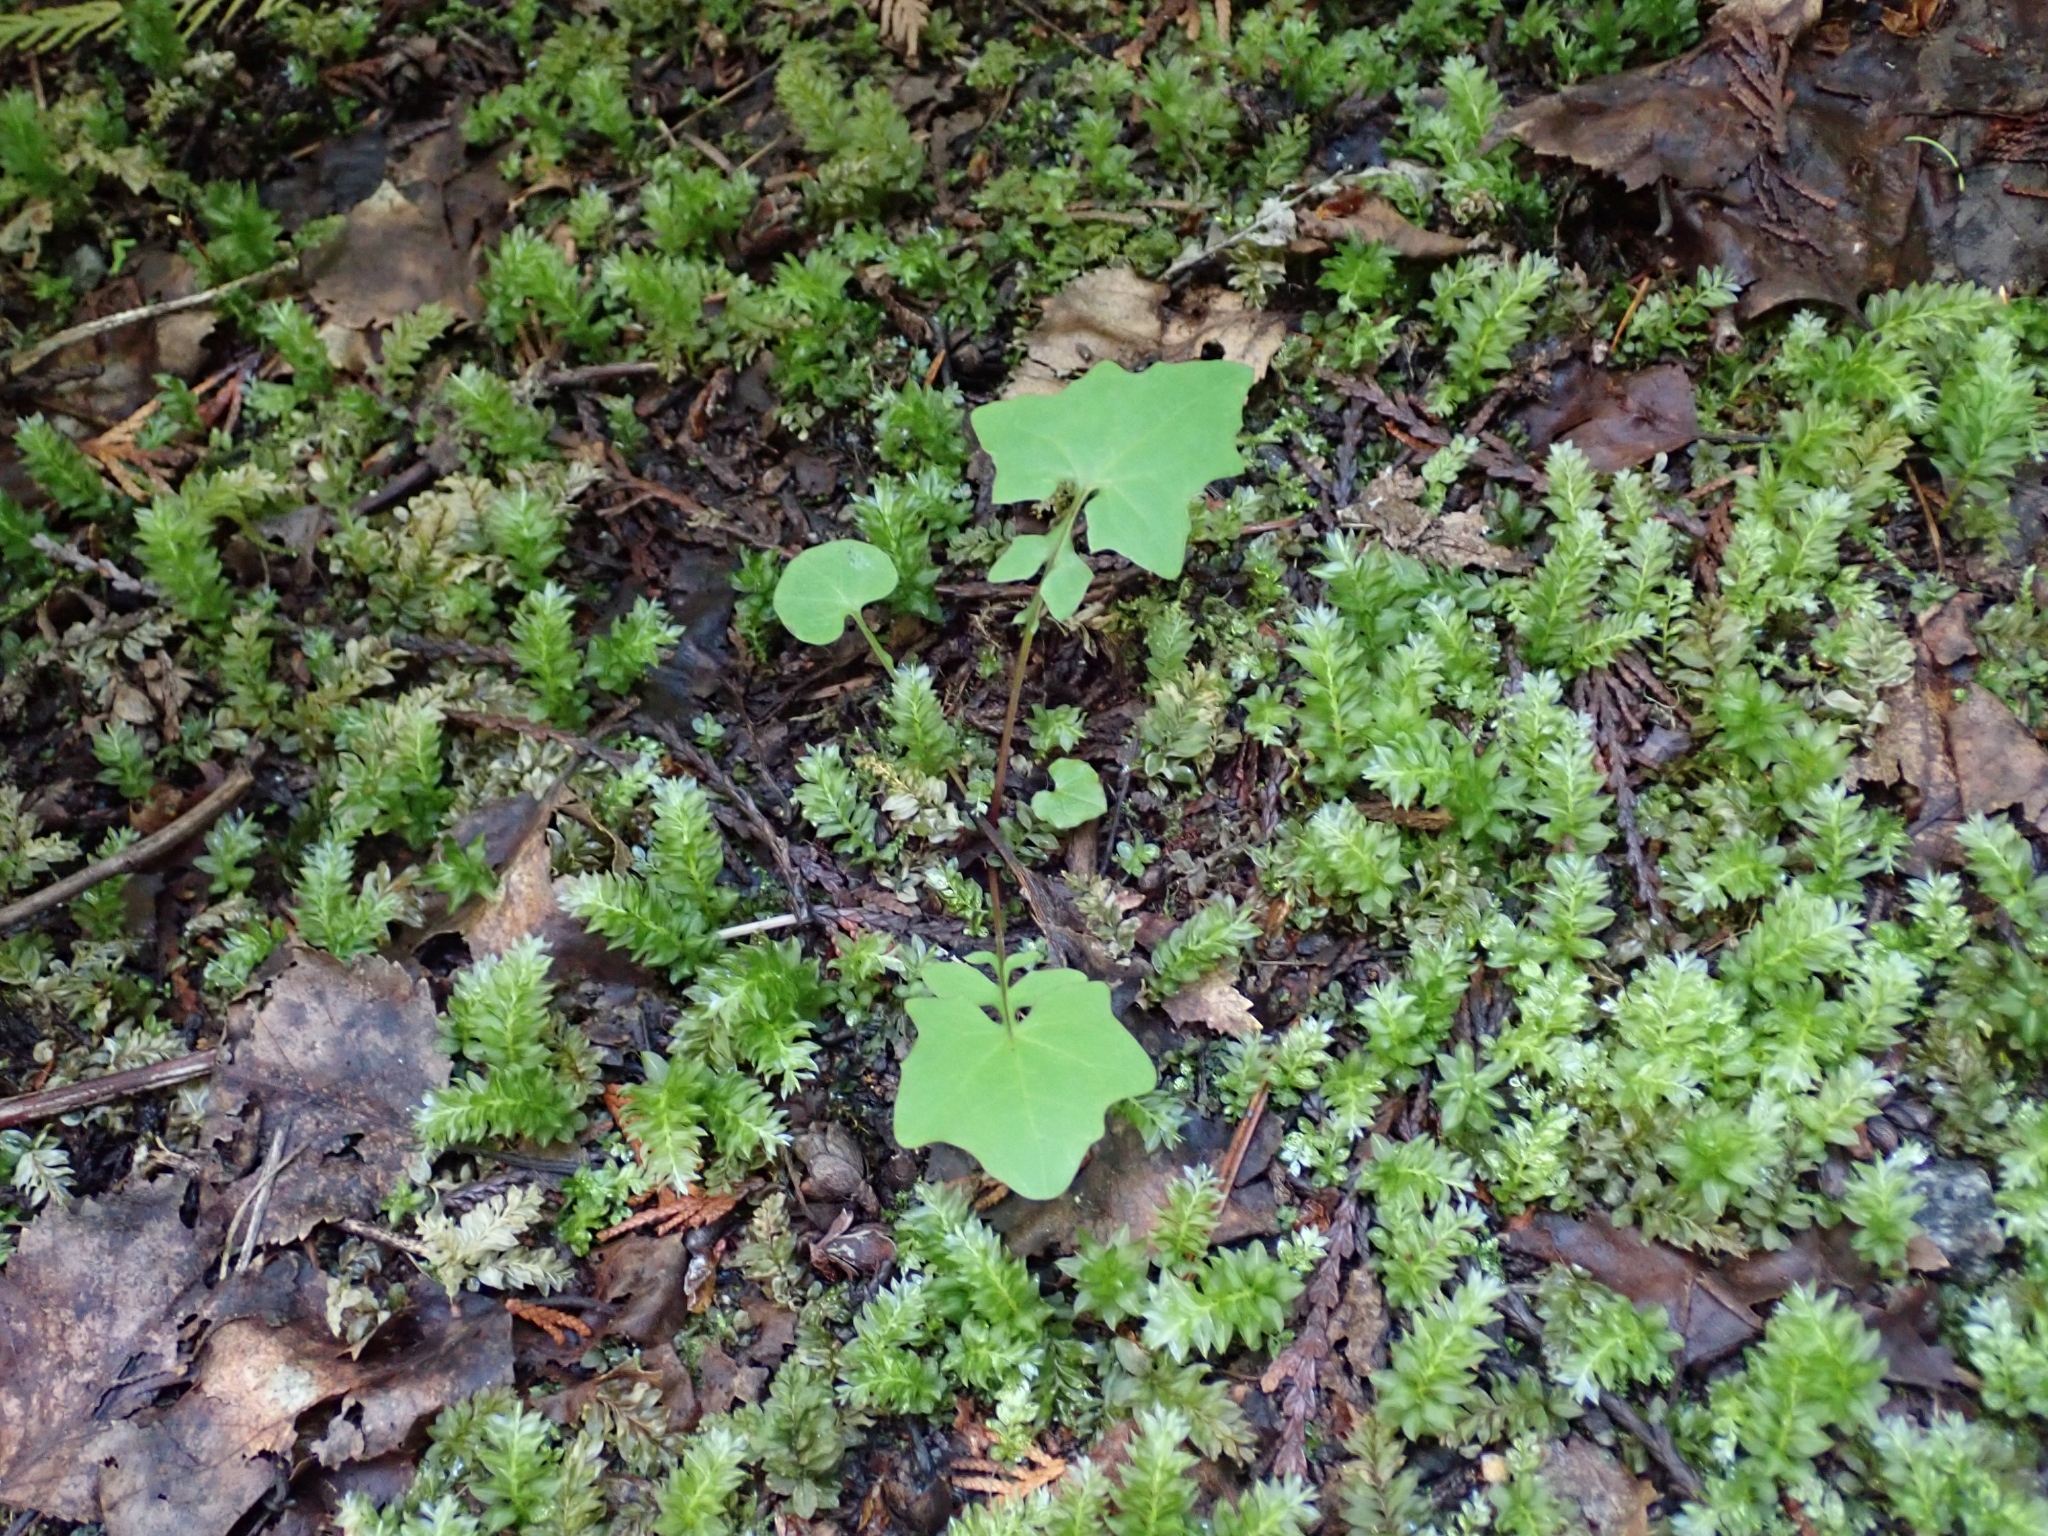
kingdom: Plantae
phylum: Tracheophyta
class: Magnoliopsida
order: Asterales
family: Asteraceae
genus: Mycelis
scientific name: Mycelis muralis
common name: Wall lettuce
